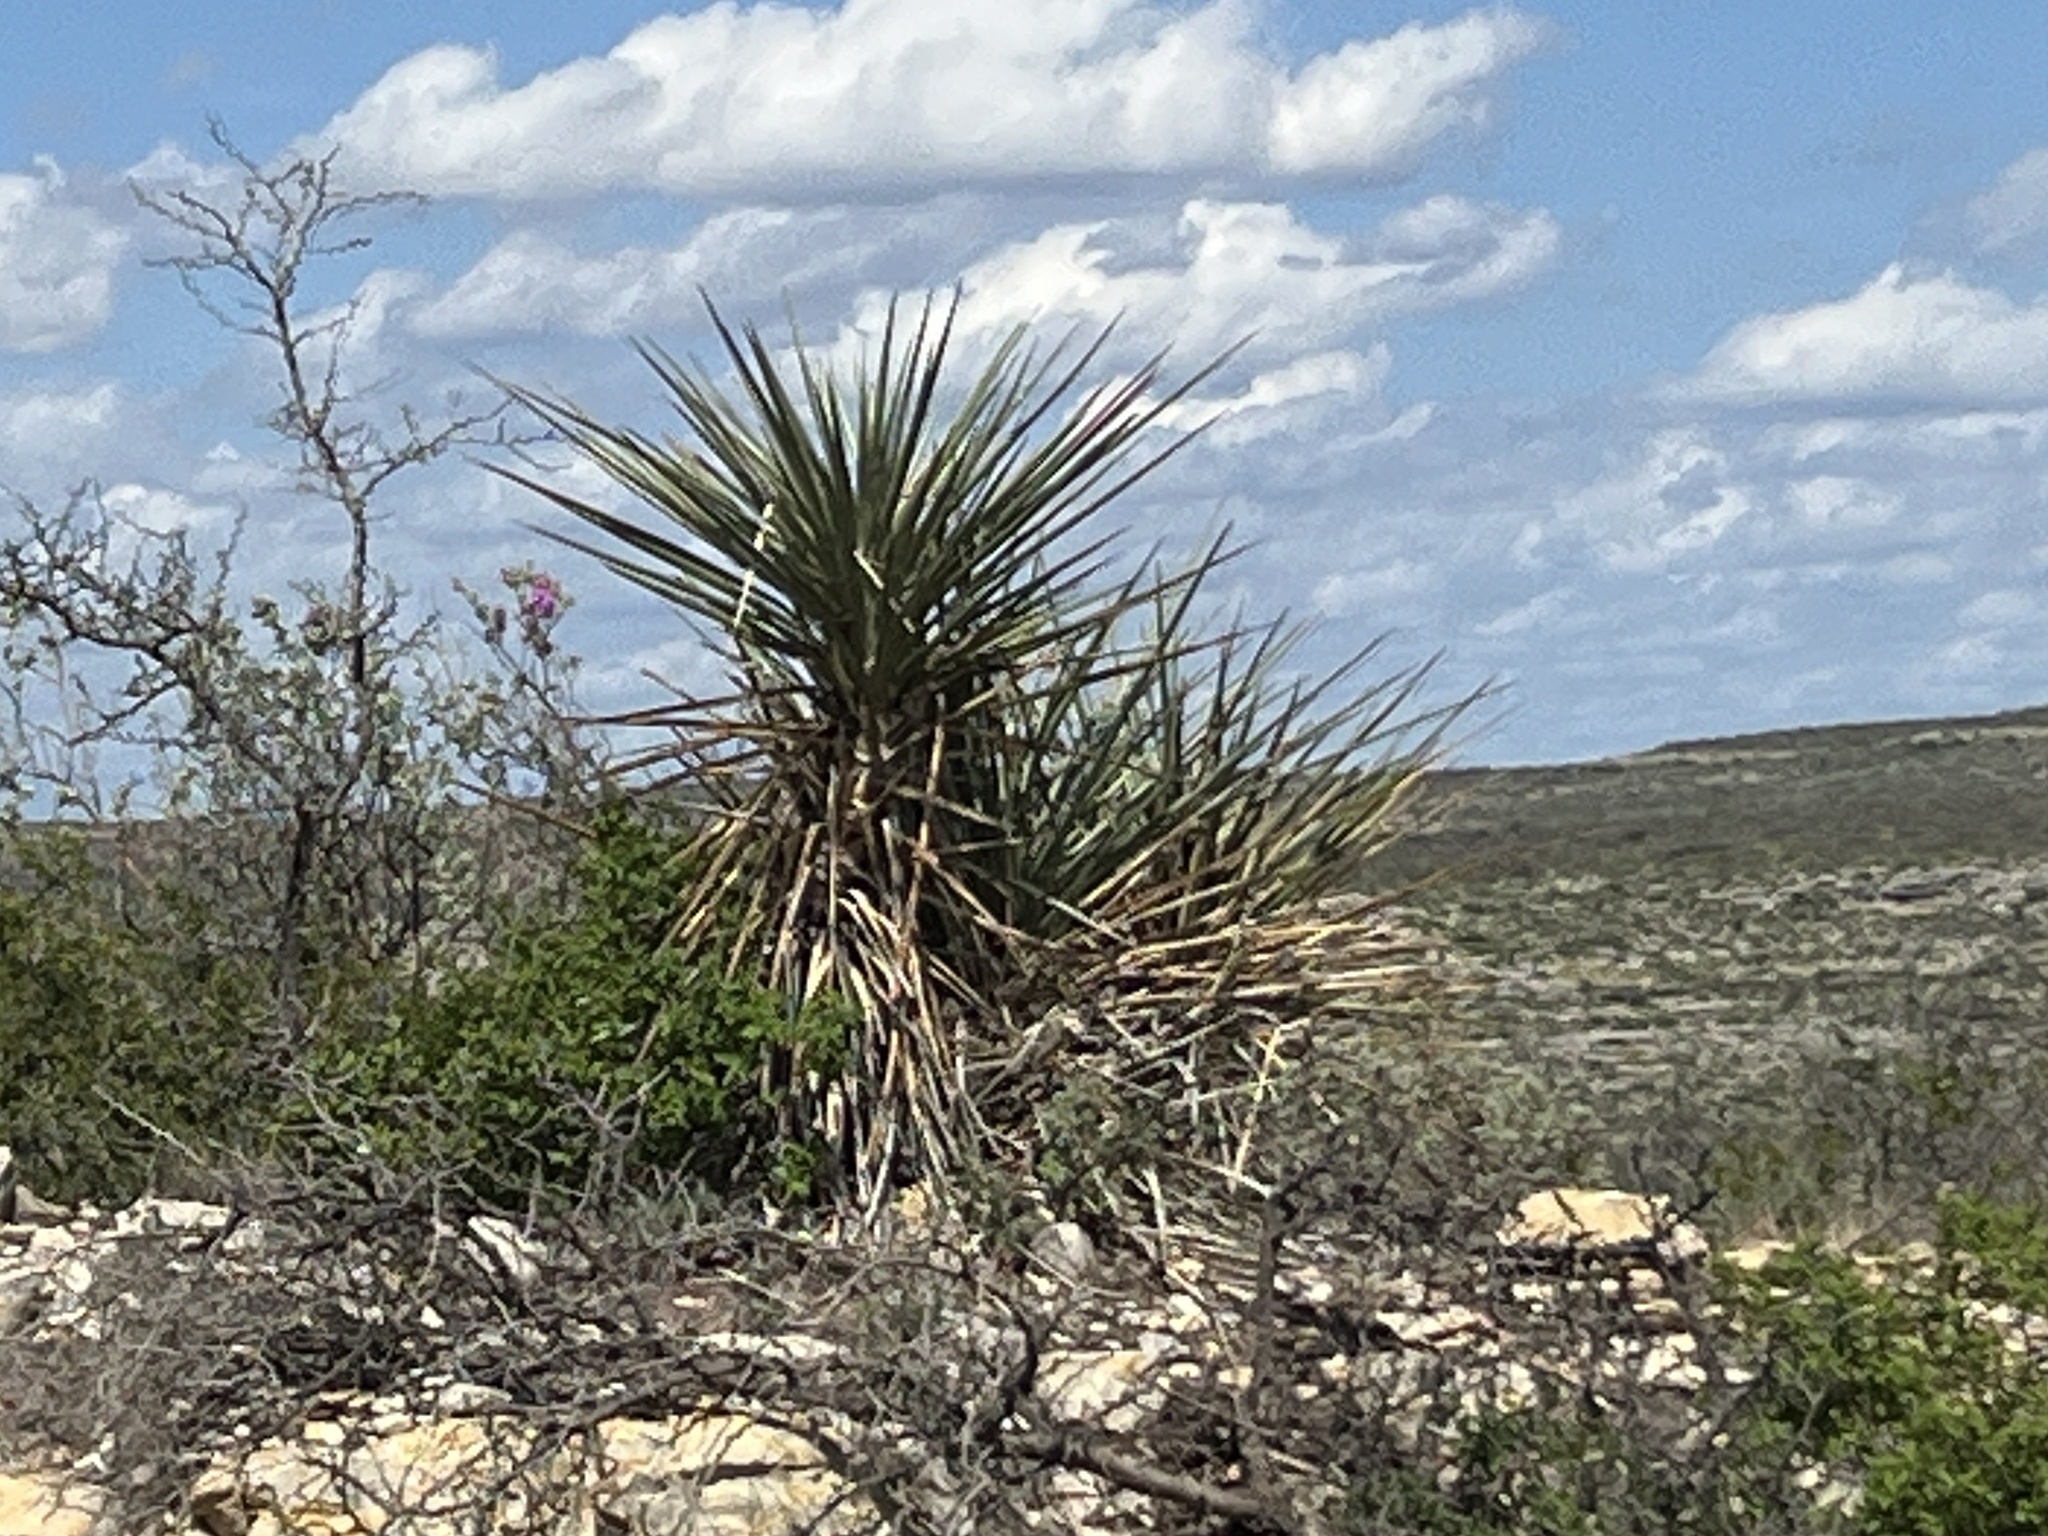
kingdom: Plantae
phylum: Tracheophyta
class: Liliopsida
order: Asparagales
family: Asparagaceae
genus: Yucca
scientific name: Yucca treculiana
